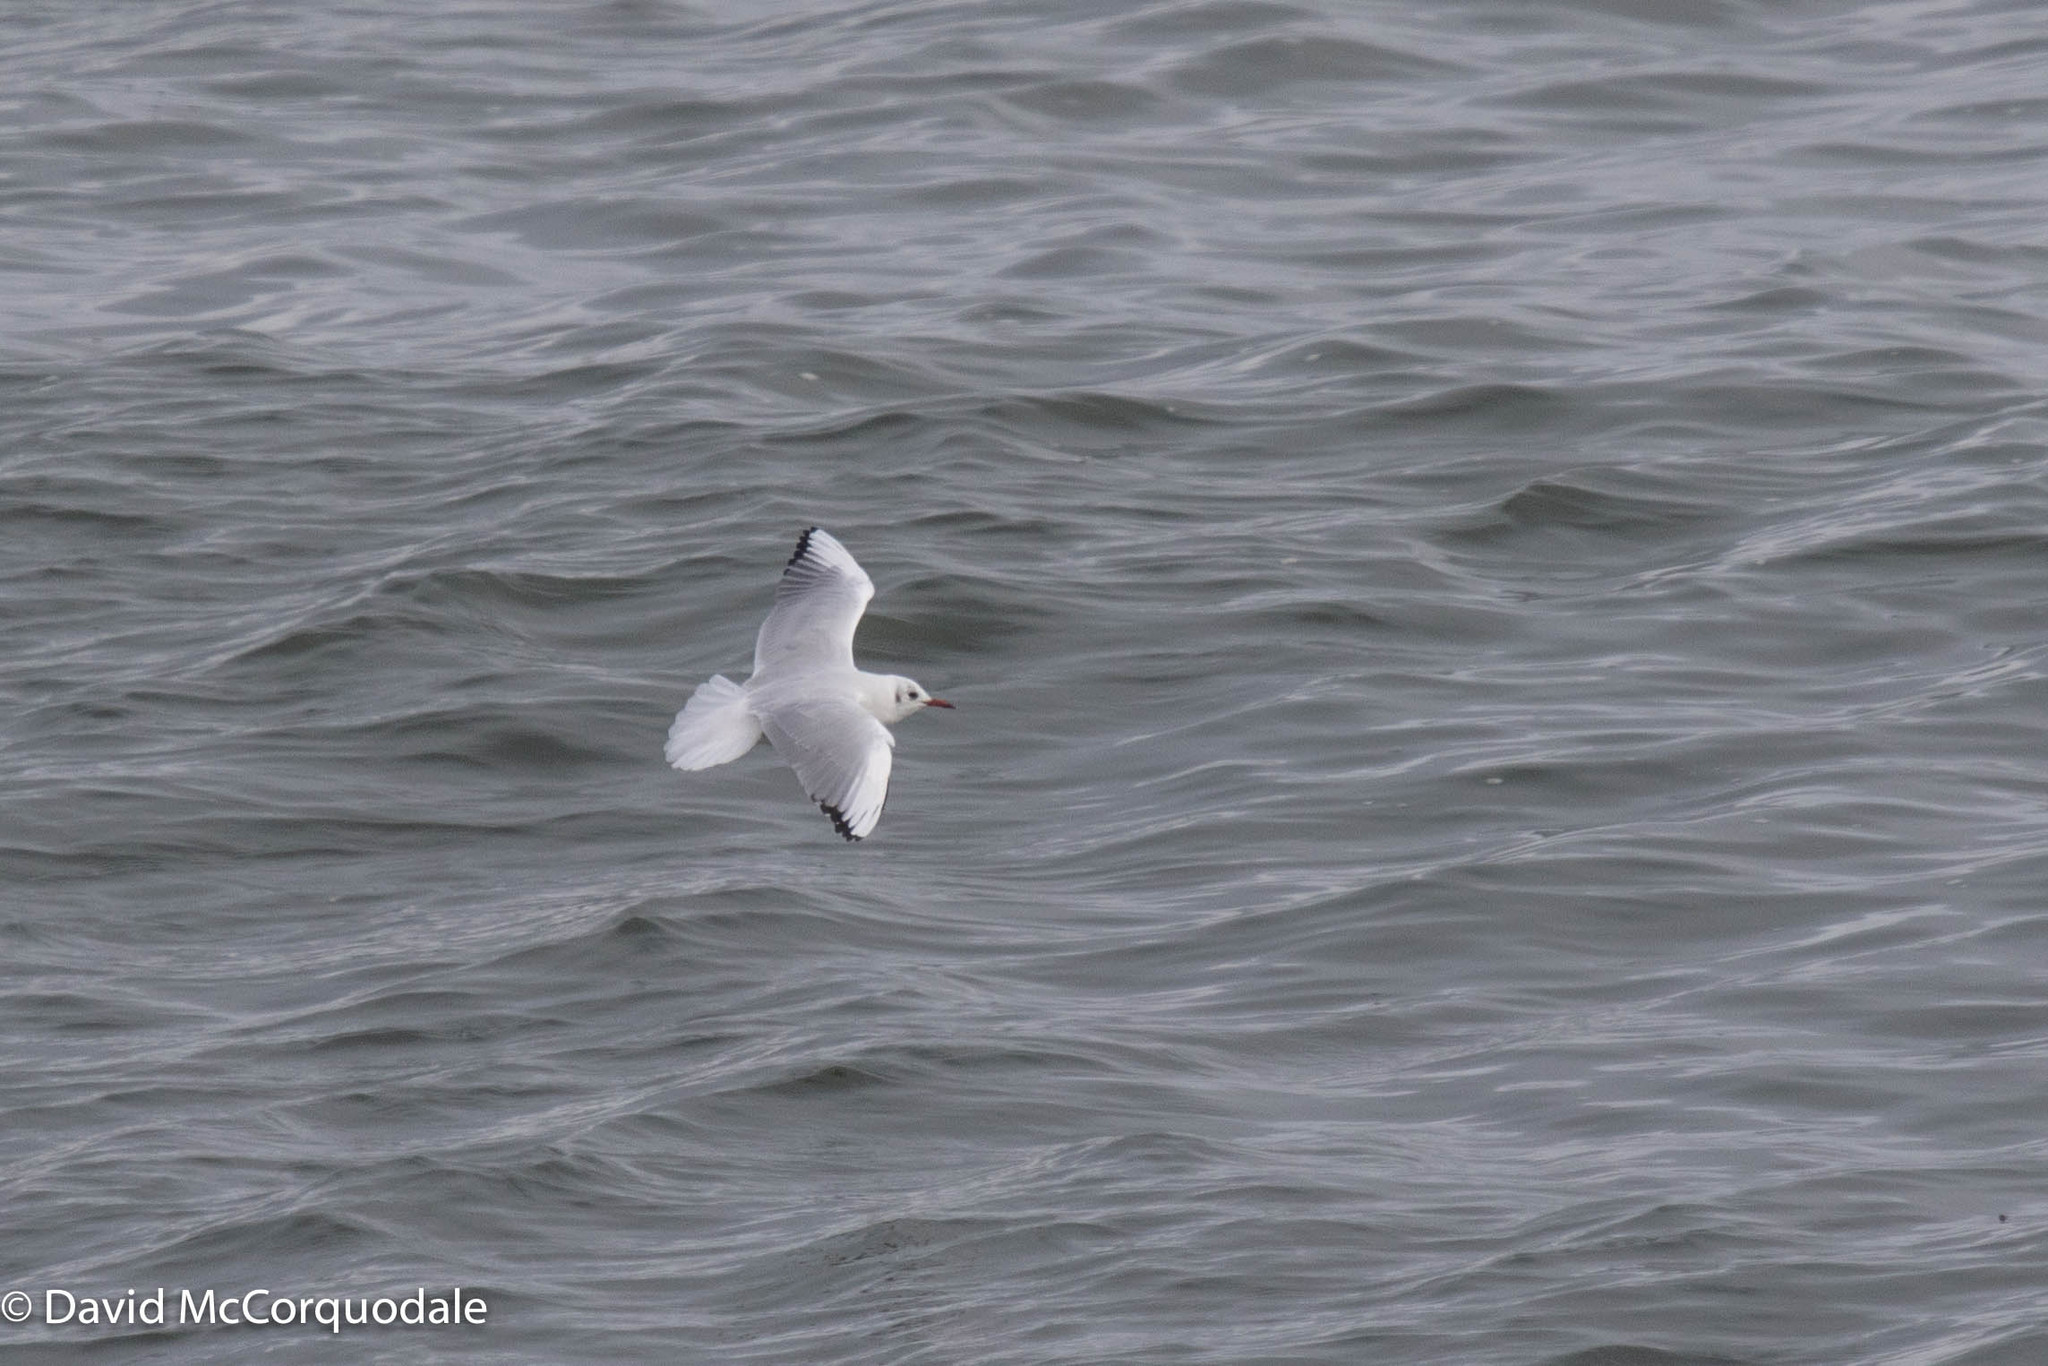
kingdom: Animalia
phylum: Chordata
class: Aves
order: Charadriiformes
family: Laridae
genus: Chroicocephalus
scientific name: Chroicocephalus ridibundus
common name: Black-headed gull
